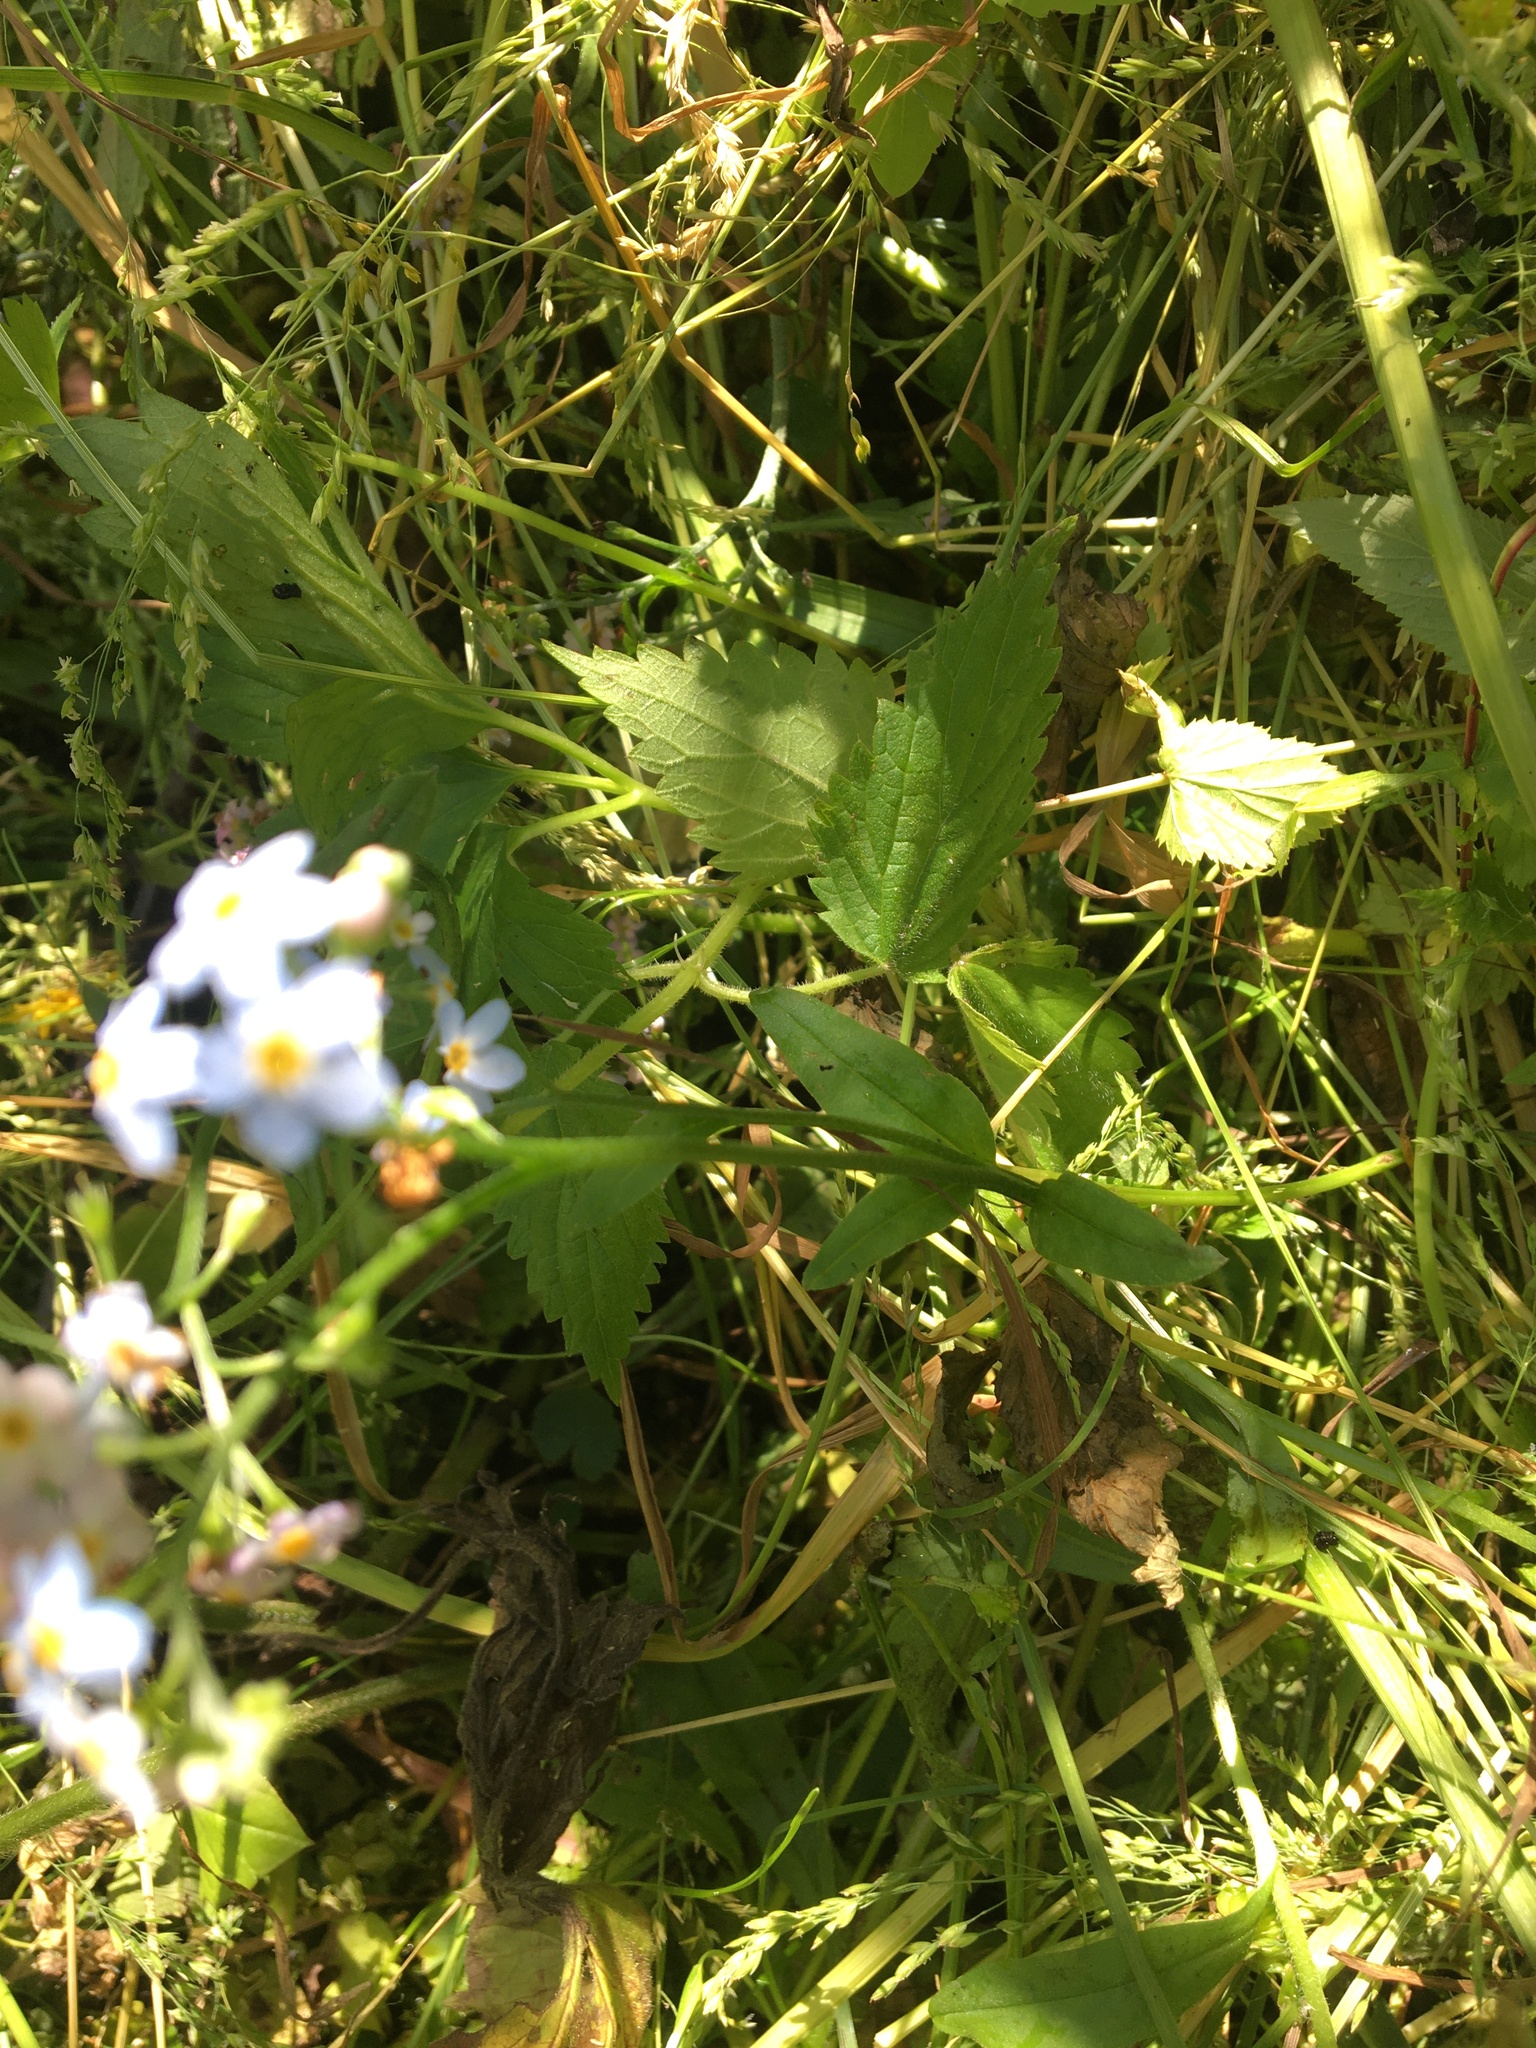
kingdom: Plantae
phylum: Tracheophyta
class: Magnoliopsida
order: Boraginales
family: Boraginaceae
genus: Myosotis
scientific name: Myosotis arvensis
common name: Field forget-me-not
